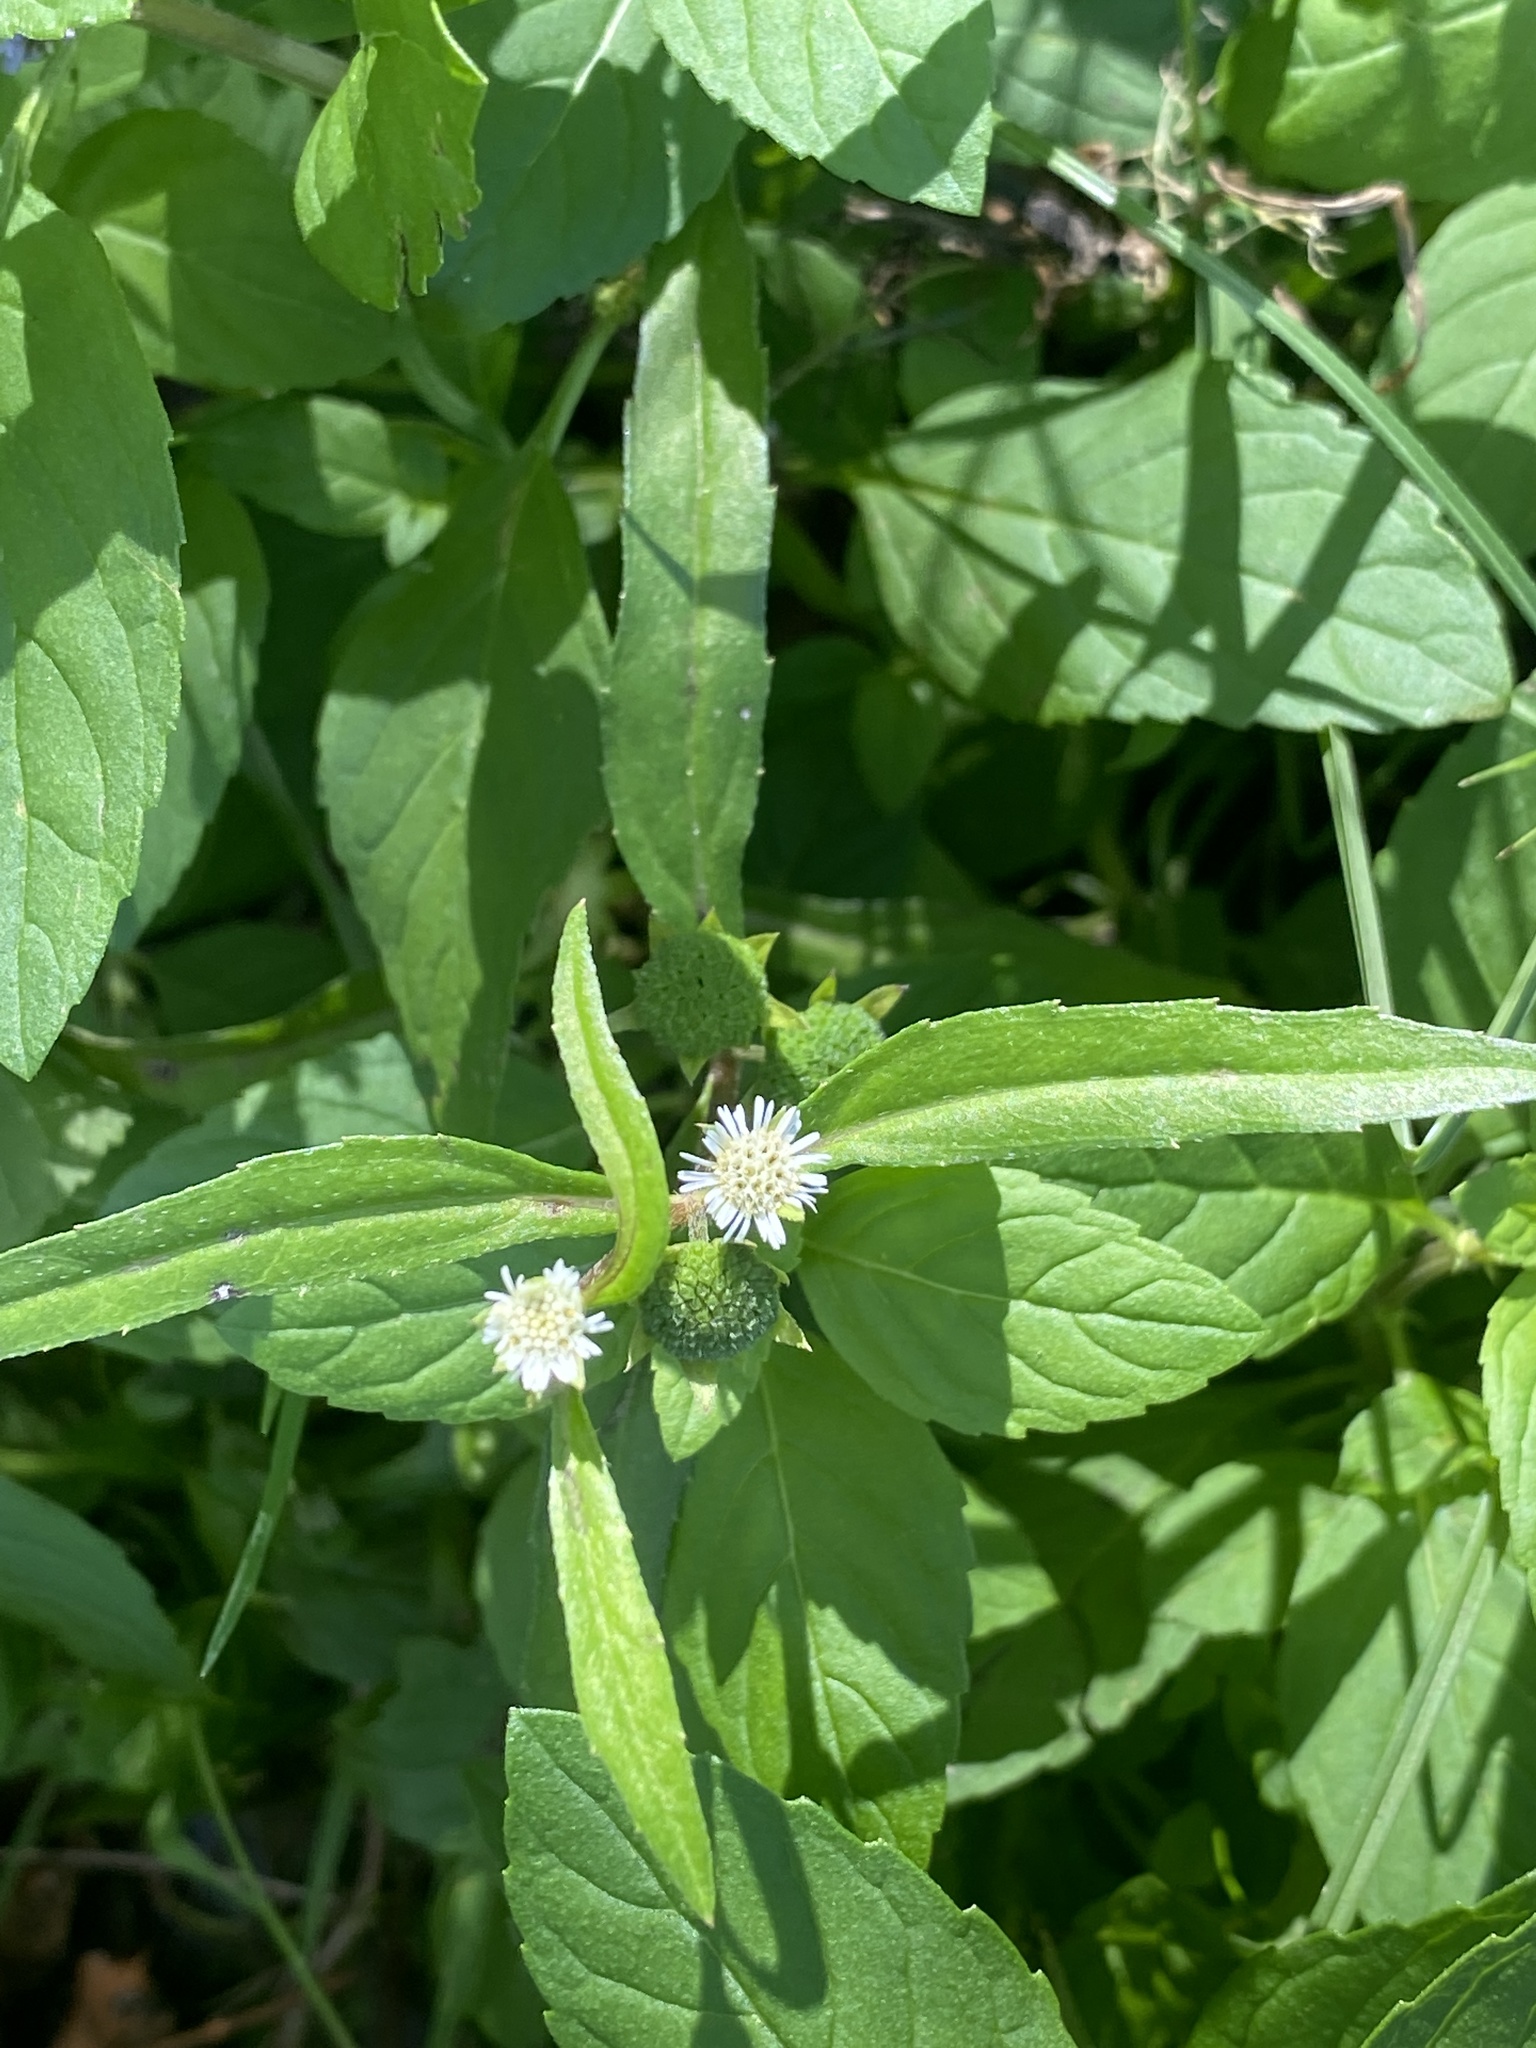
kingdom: Plantae
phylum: Tracheophyta
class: Magnoliopsida
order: Asterales
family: Asteraceae
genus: Eclipta
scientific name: Eclipta prostrata
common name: False daisy
